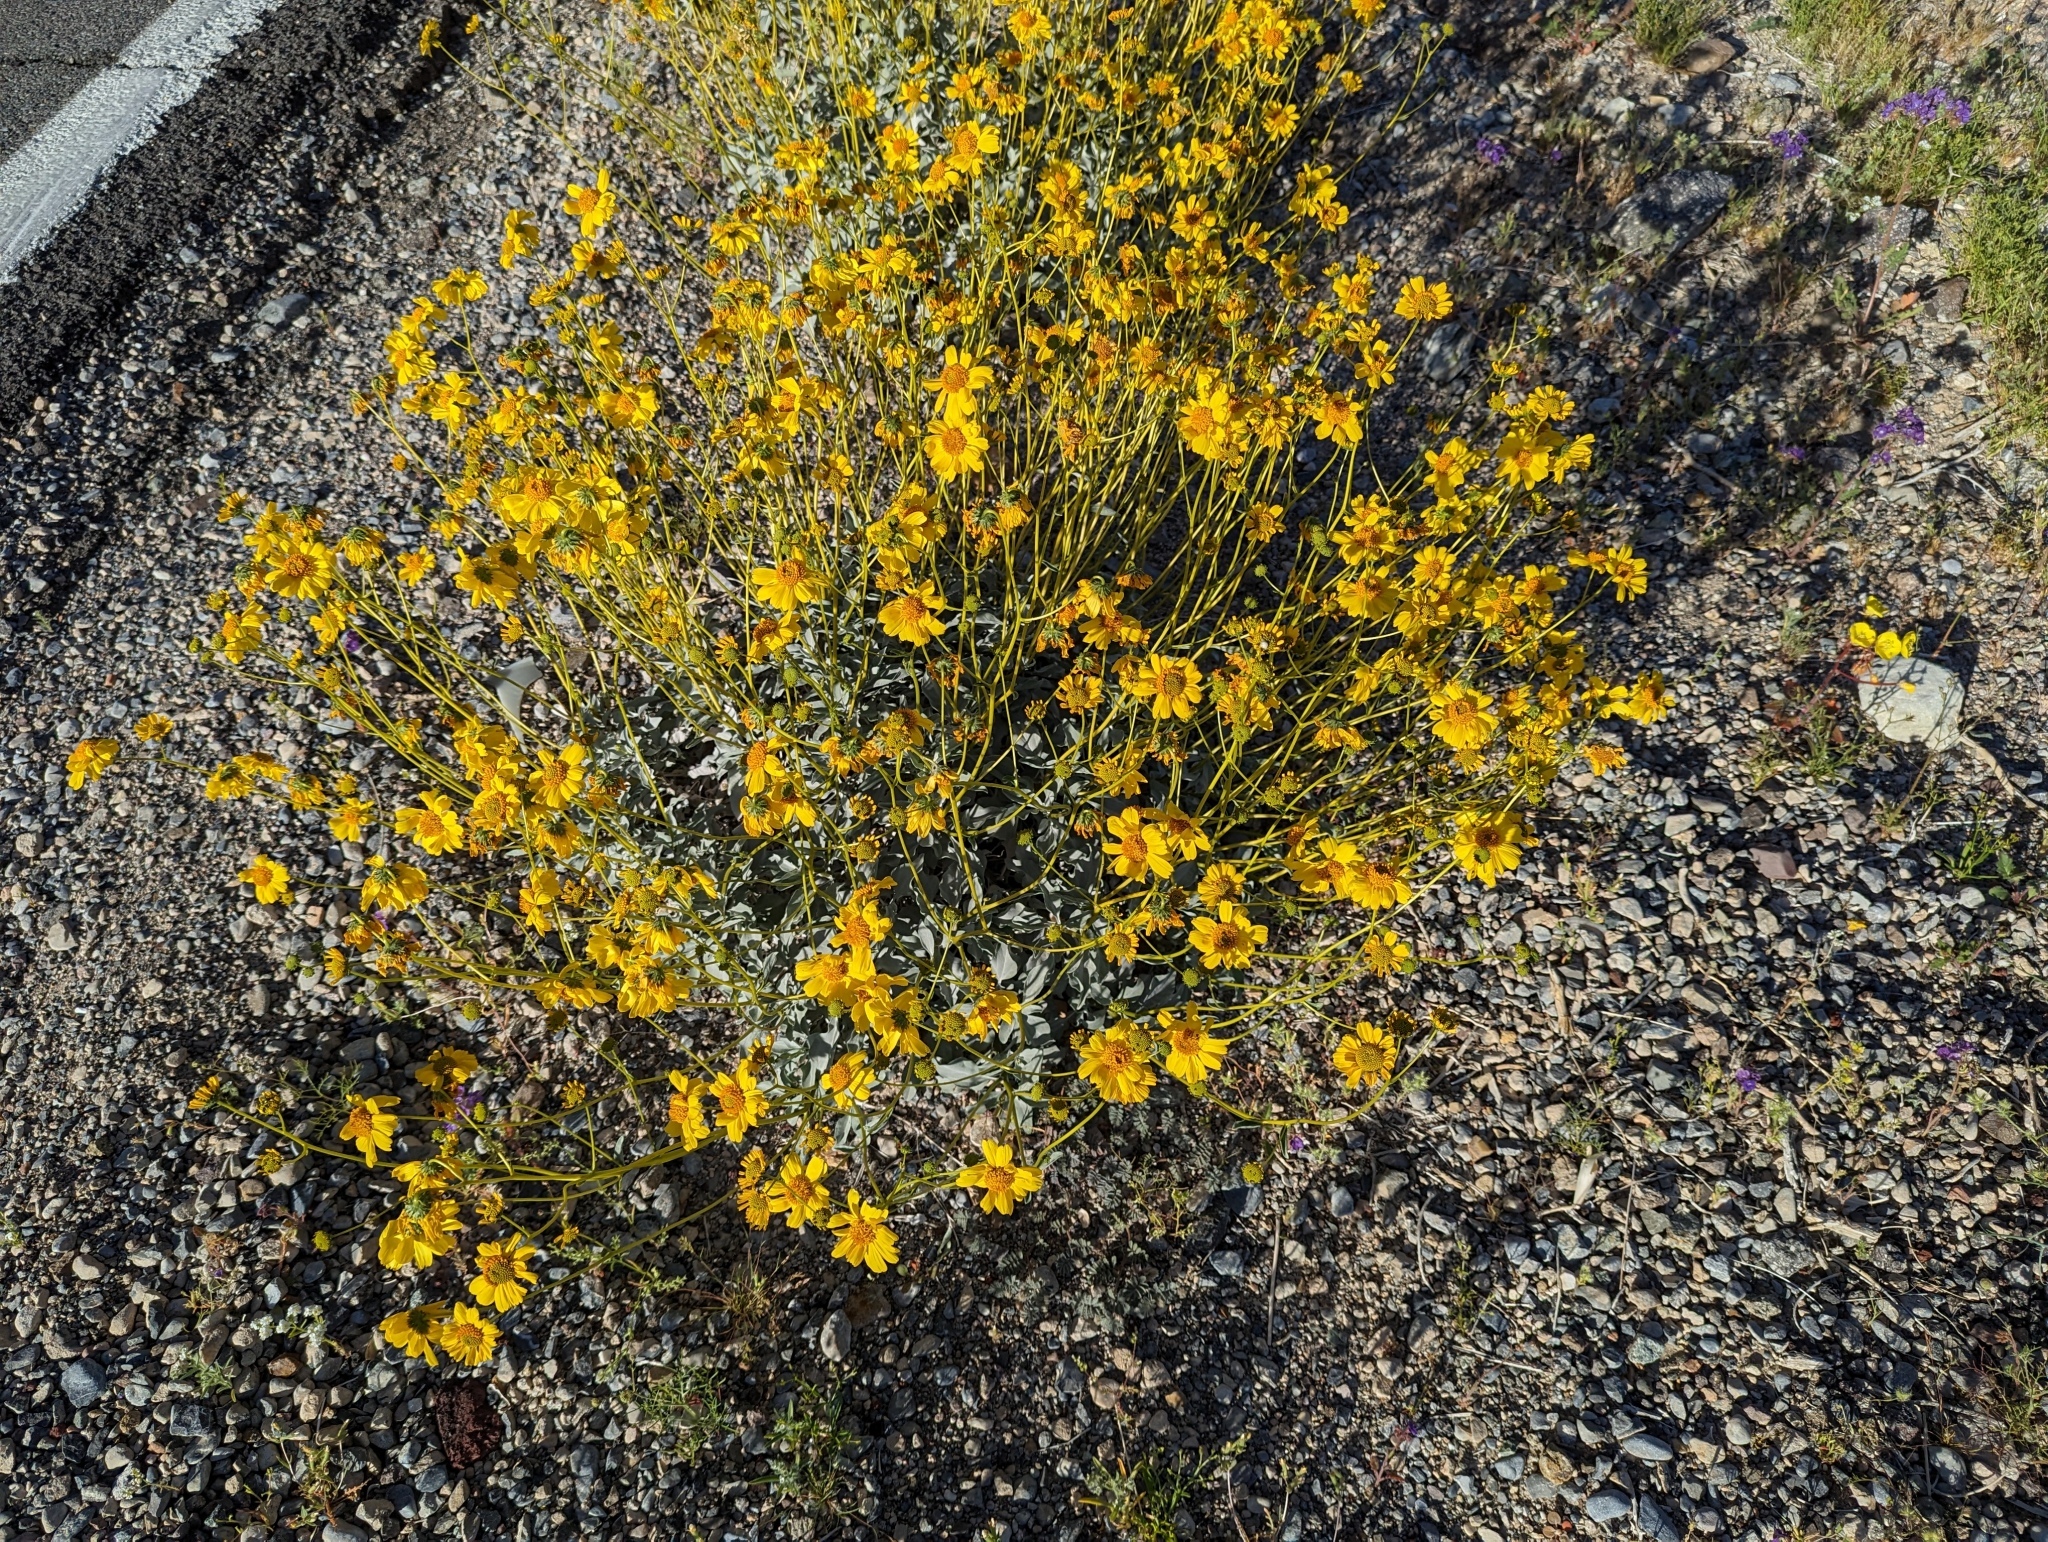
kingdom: Plantae
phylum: Tracheophyta
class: Magnoliopsida
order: Asterales
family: Asteraceae
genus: Encelia
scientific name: Encelia farinosa
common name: Brittlebush
